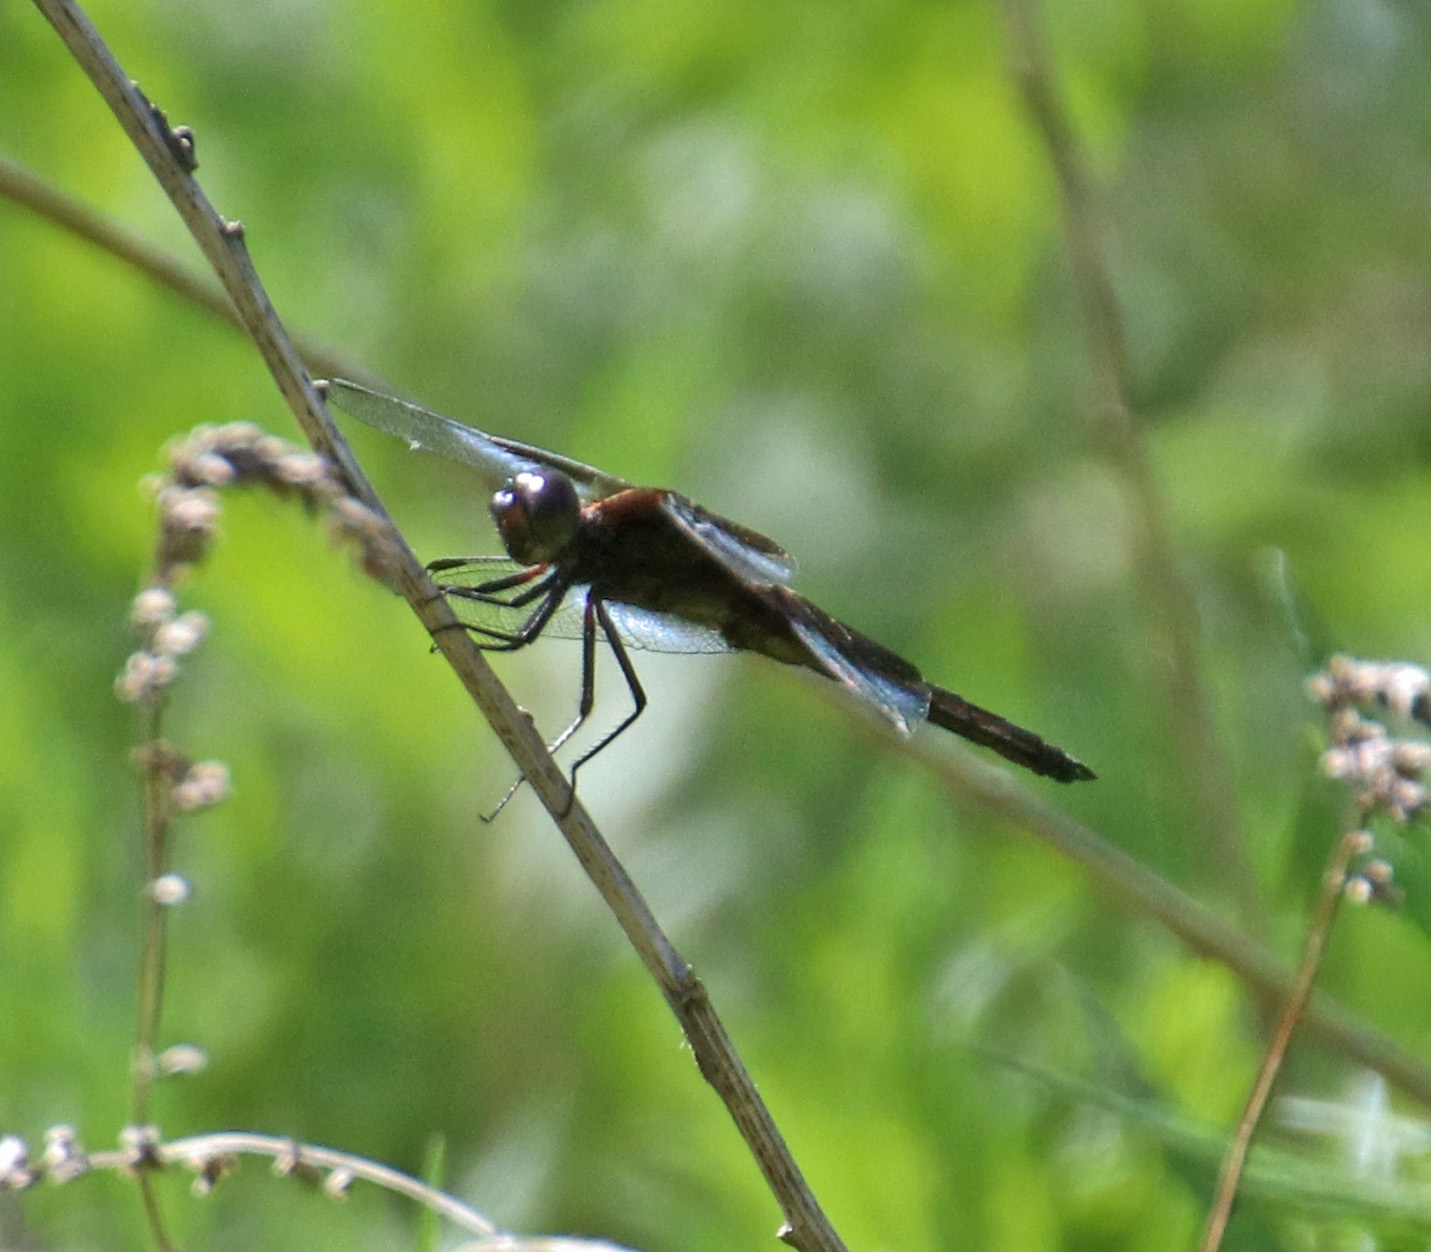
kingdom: Animalia
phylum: Arthropoda
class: Insecta
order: Odonata
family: Libellulidae
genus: Libellula
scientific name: Libellula luctuosa
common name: Widow skimmer
